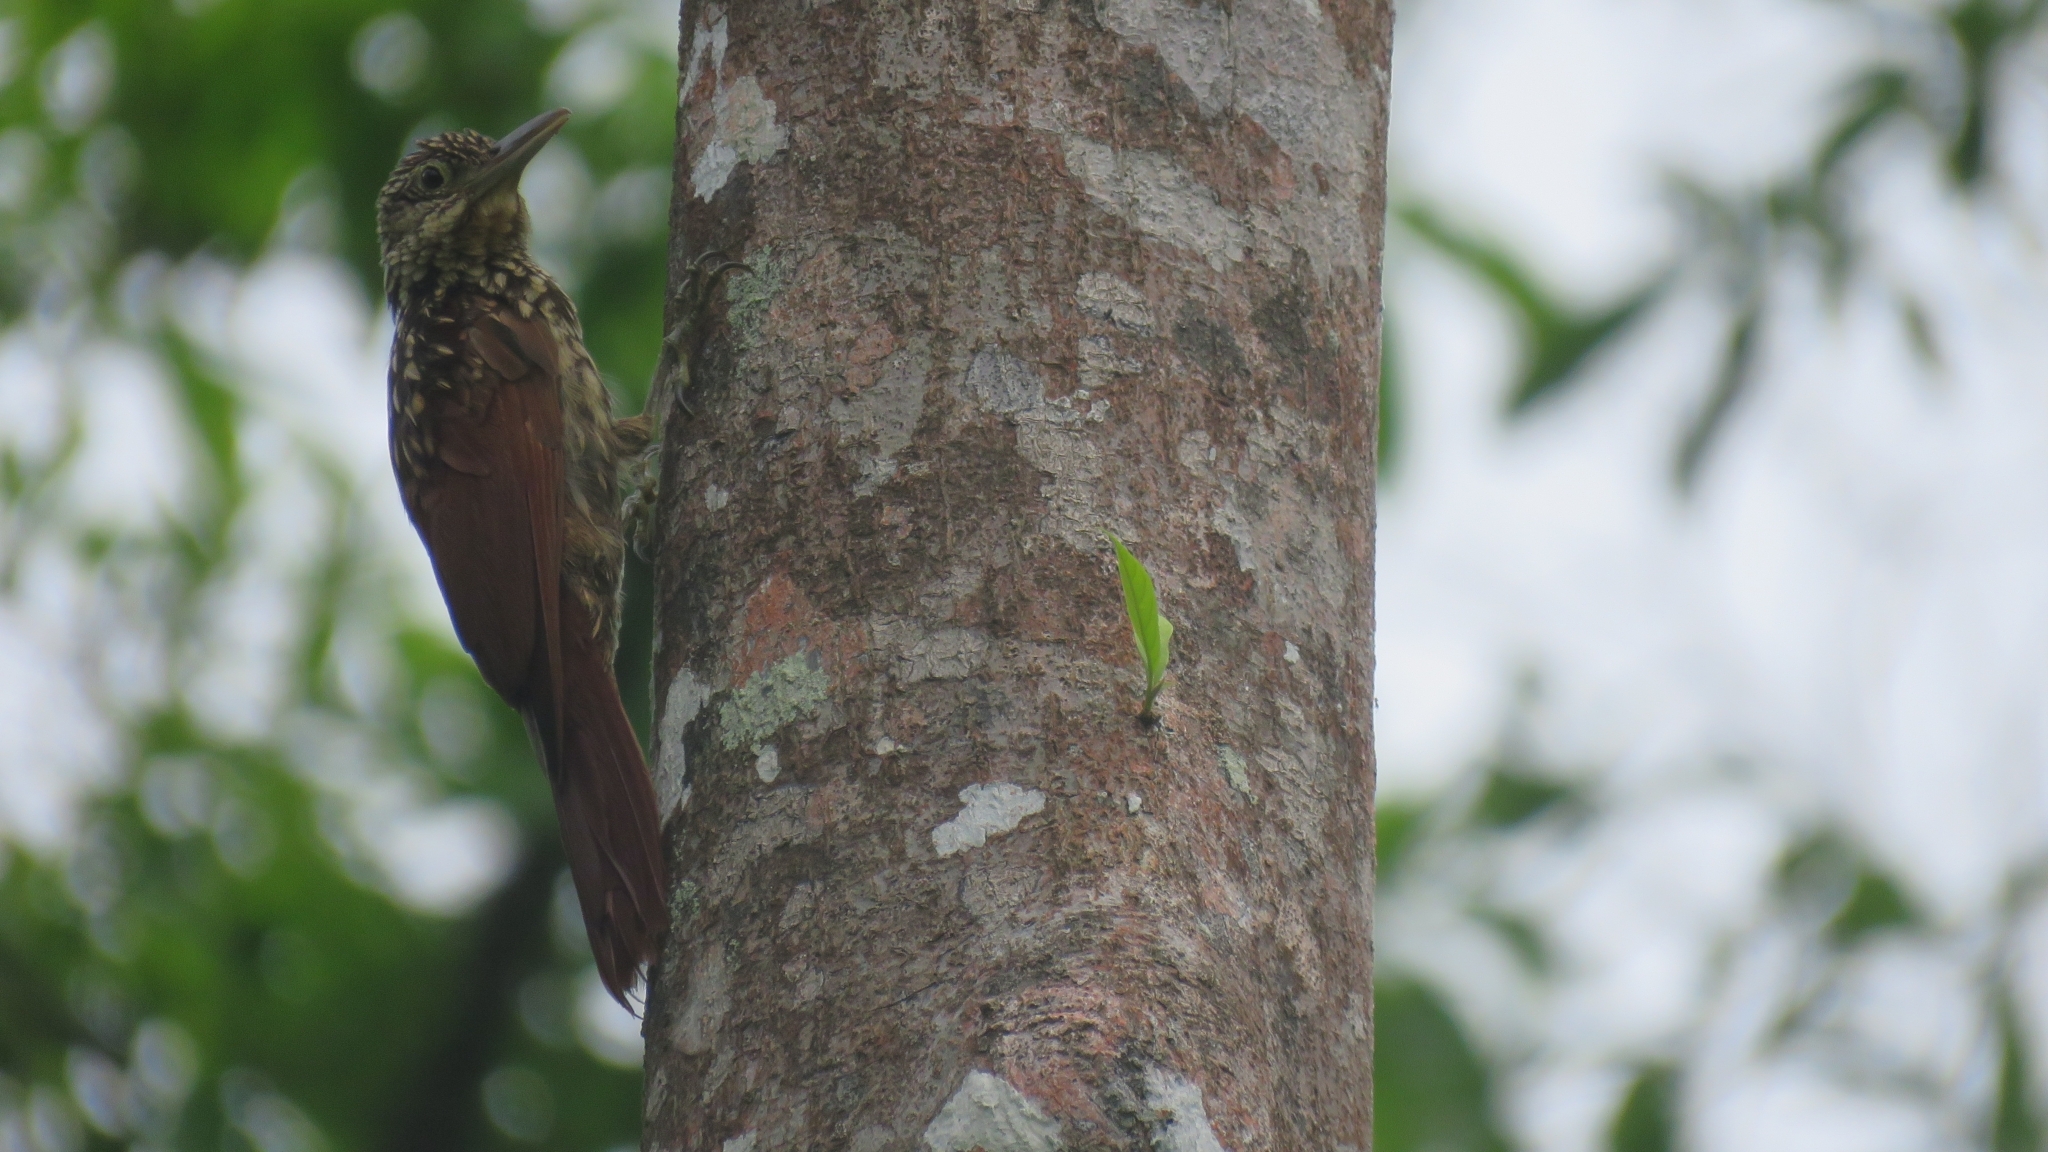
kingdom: Animalia
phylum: Chordata
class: Aves
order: Passeriformes
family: Furnariidae
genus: Xiphorhynchus
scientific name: Xiphorhynchus lachrymosus
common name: Black-striped woodcreeper
